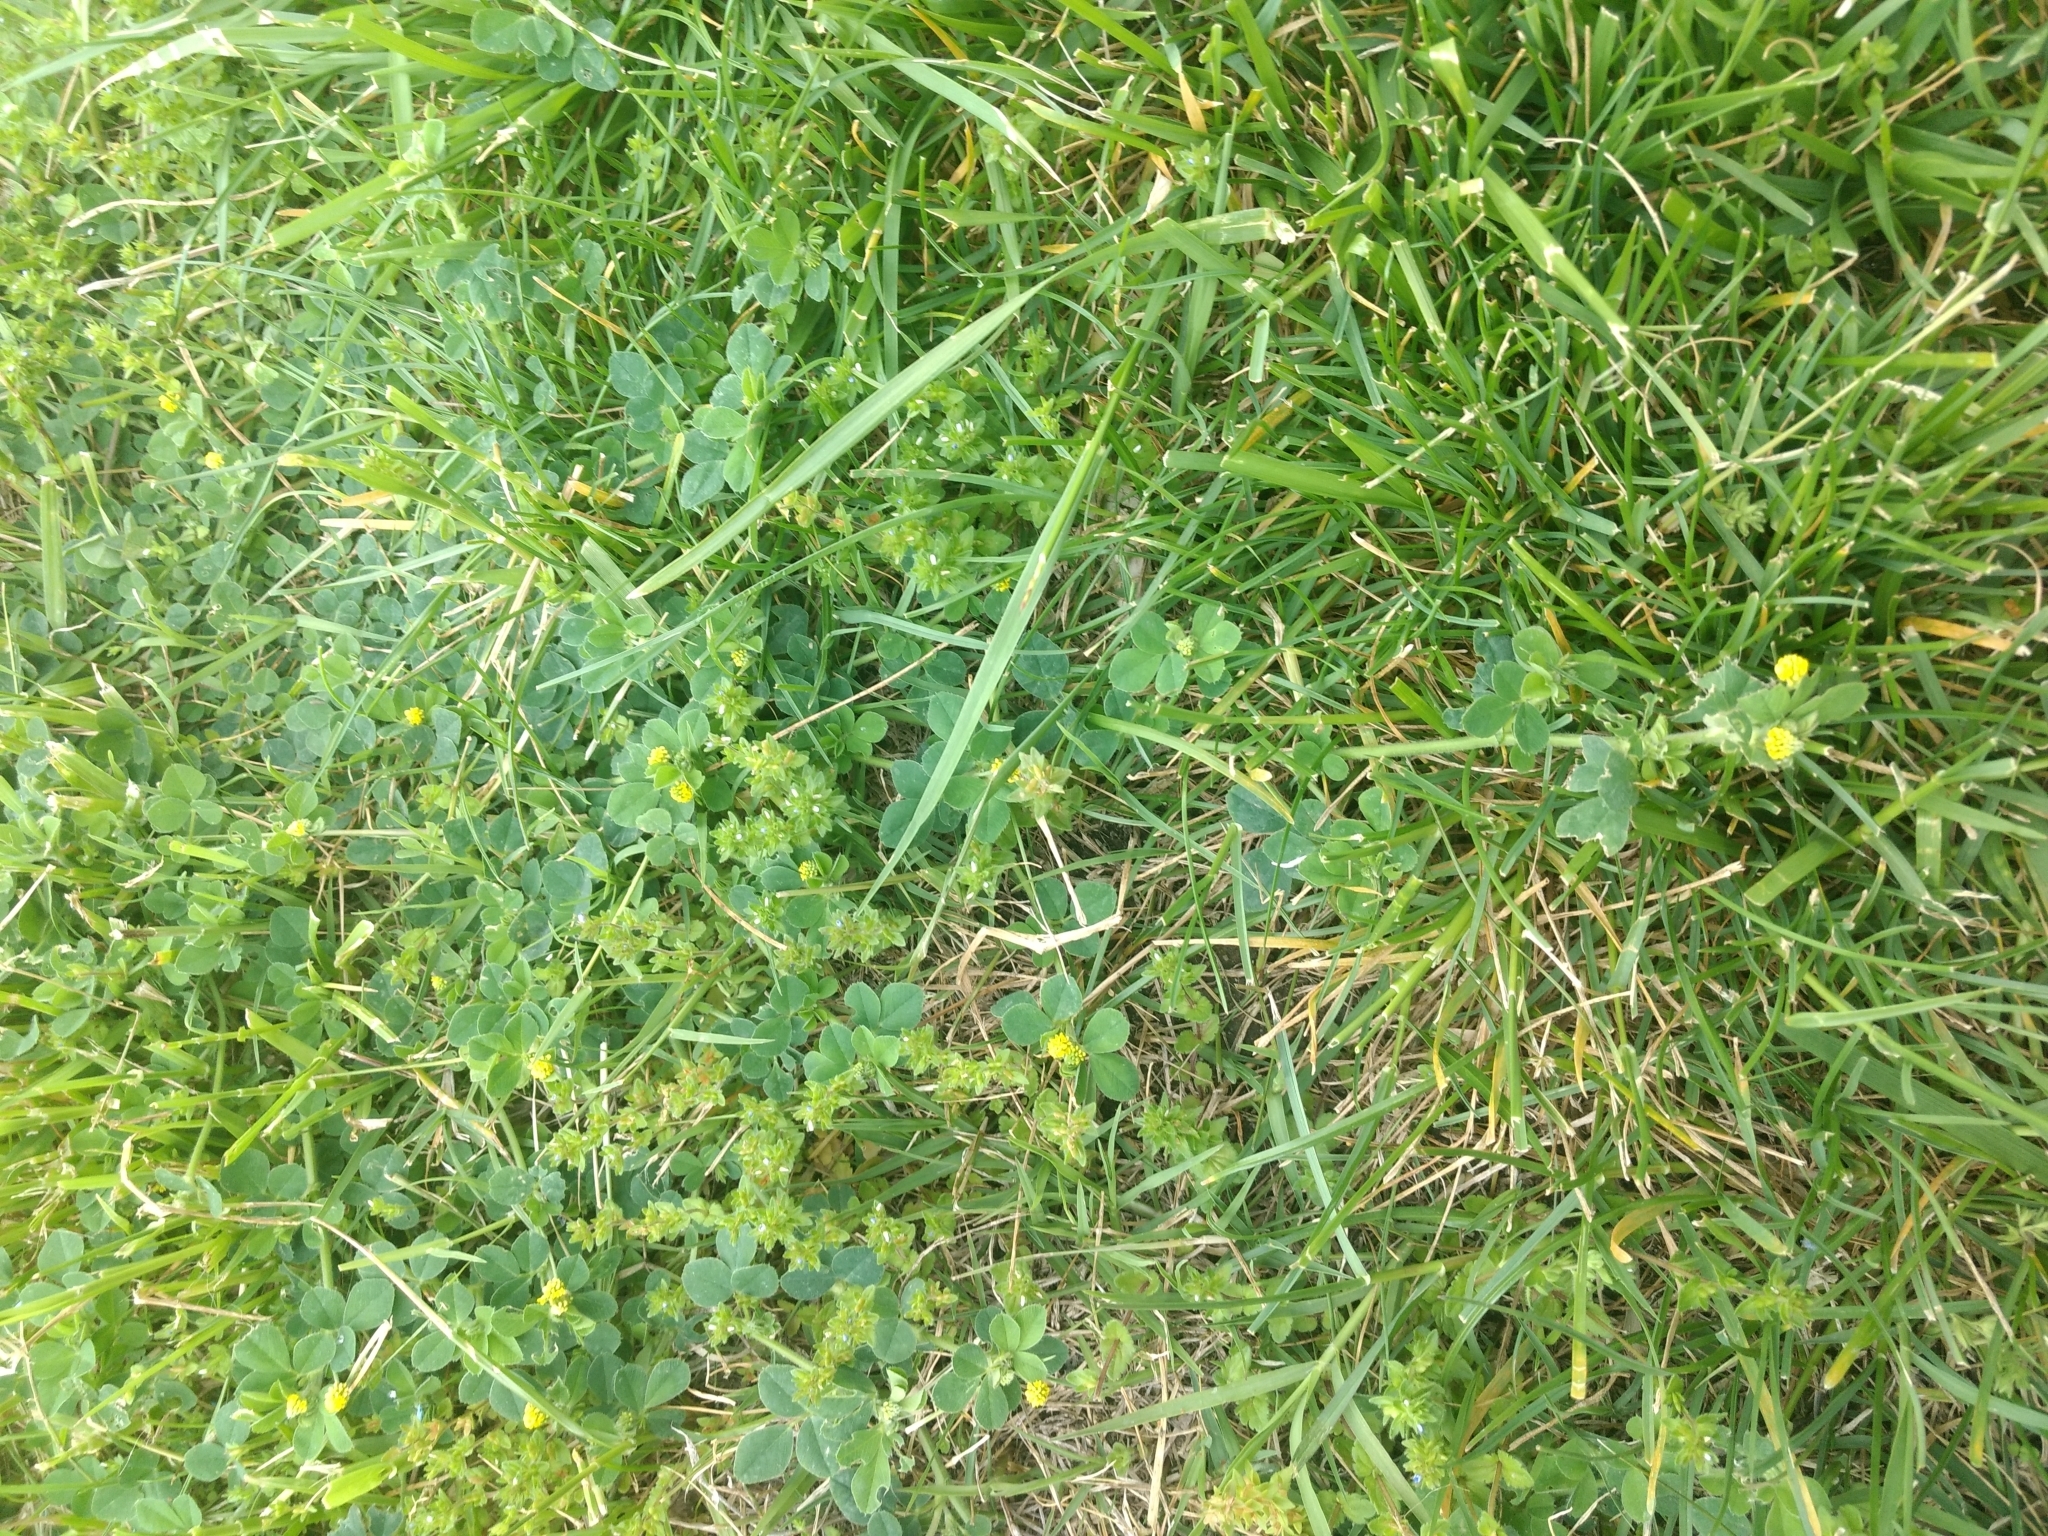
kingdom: Plantae
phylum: Tracheophyta
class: Magnoliopsida
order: Fabales
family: Fabaceae
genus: Medicago
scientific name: Medicago lupulina
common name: Black medick
